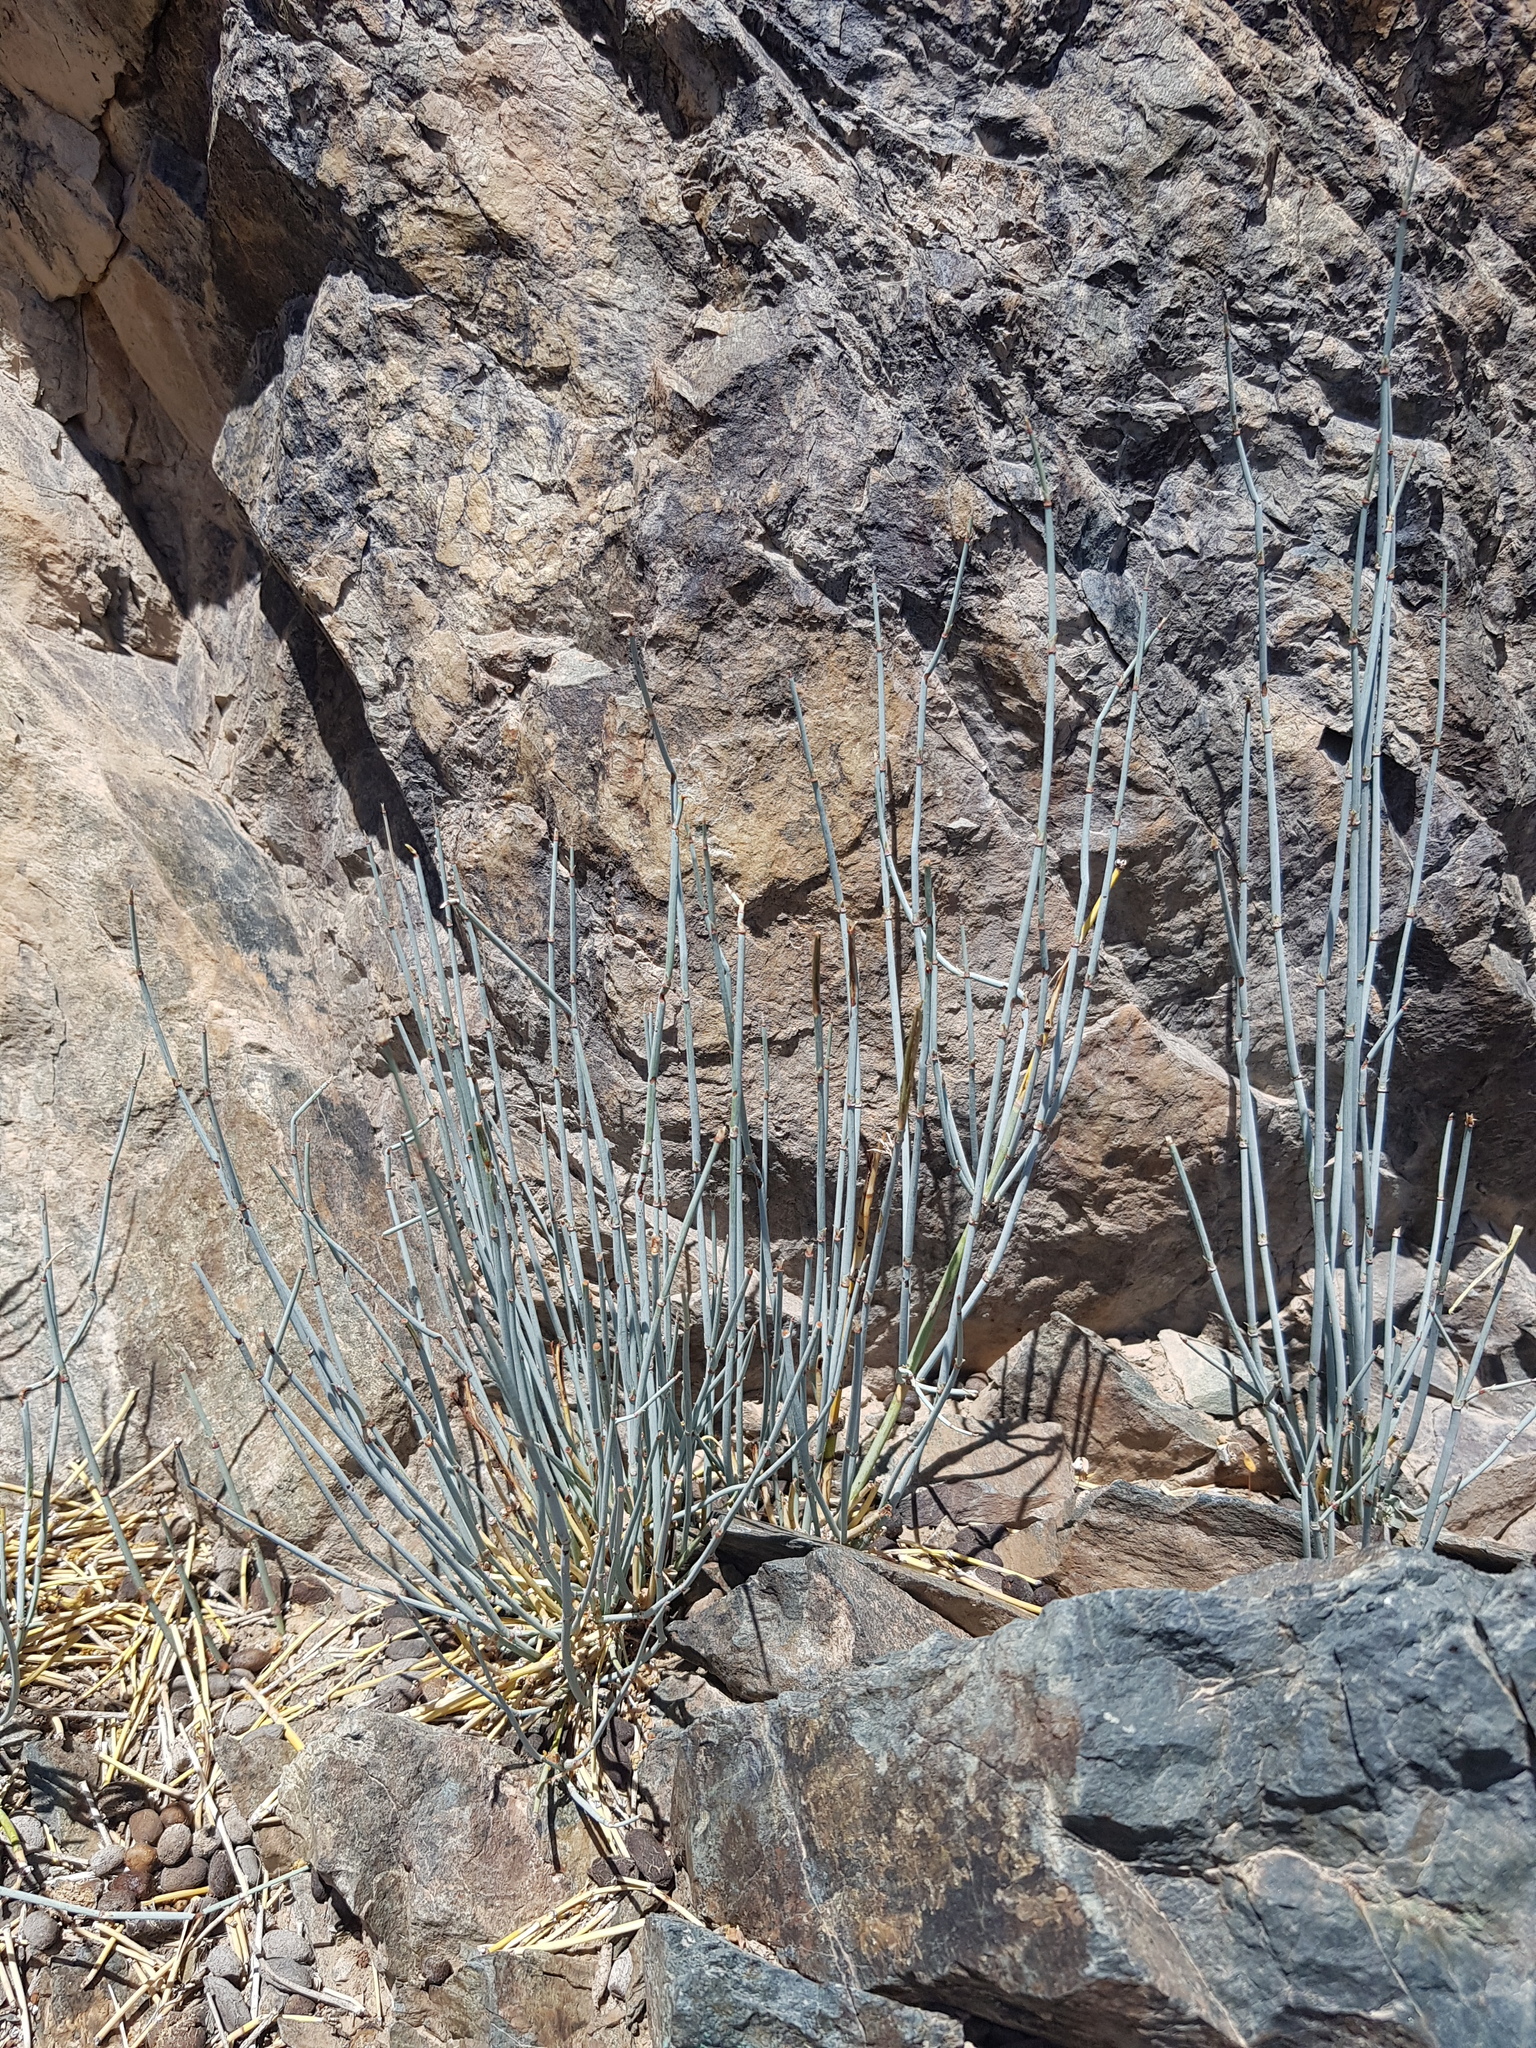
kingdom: Plantae
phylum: Tracheophyta
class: Gnetopsida
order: Ephedrales
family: Ephedraceae
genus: Ephedra
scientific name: Ephedra equisetina
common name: Mongolian ephedra
